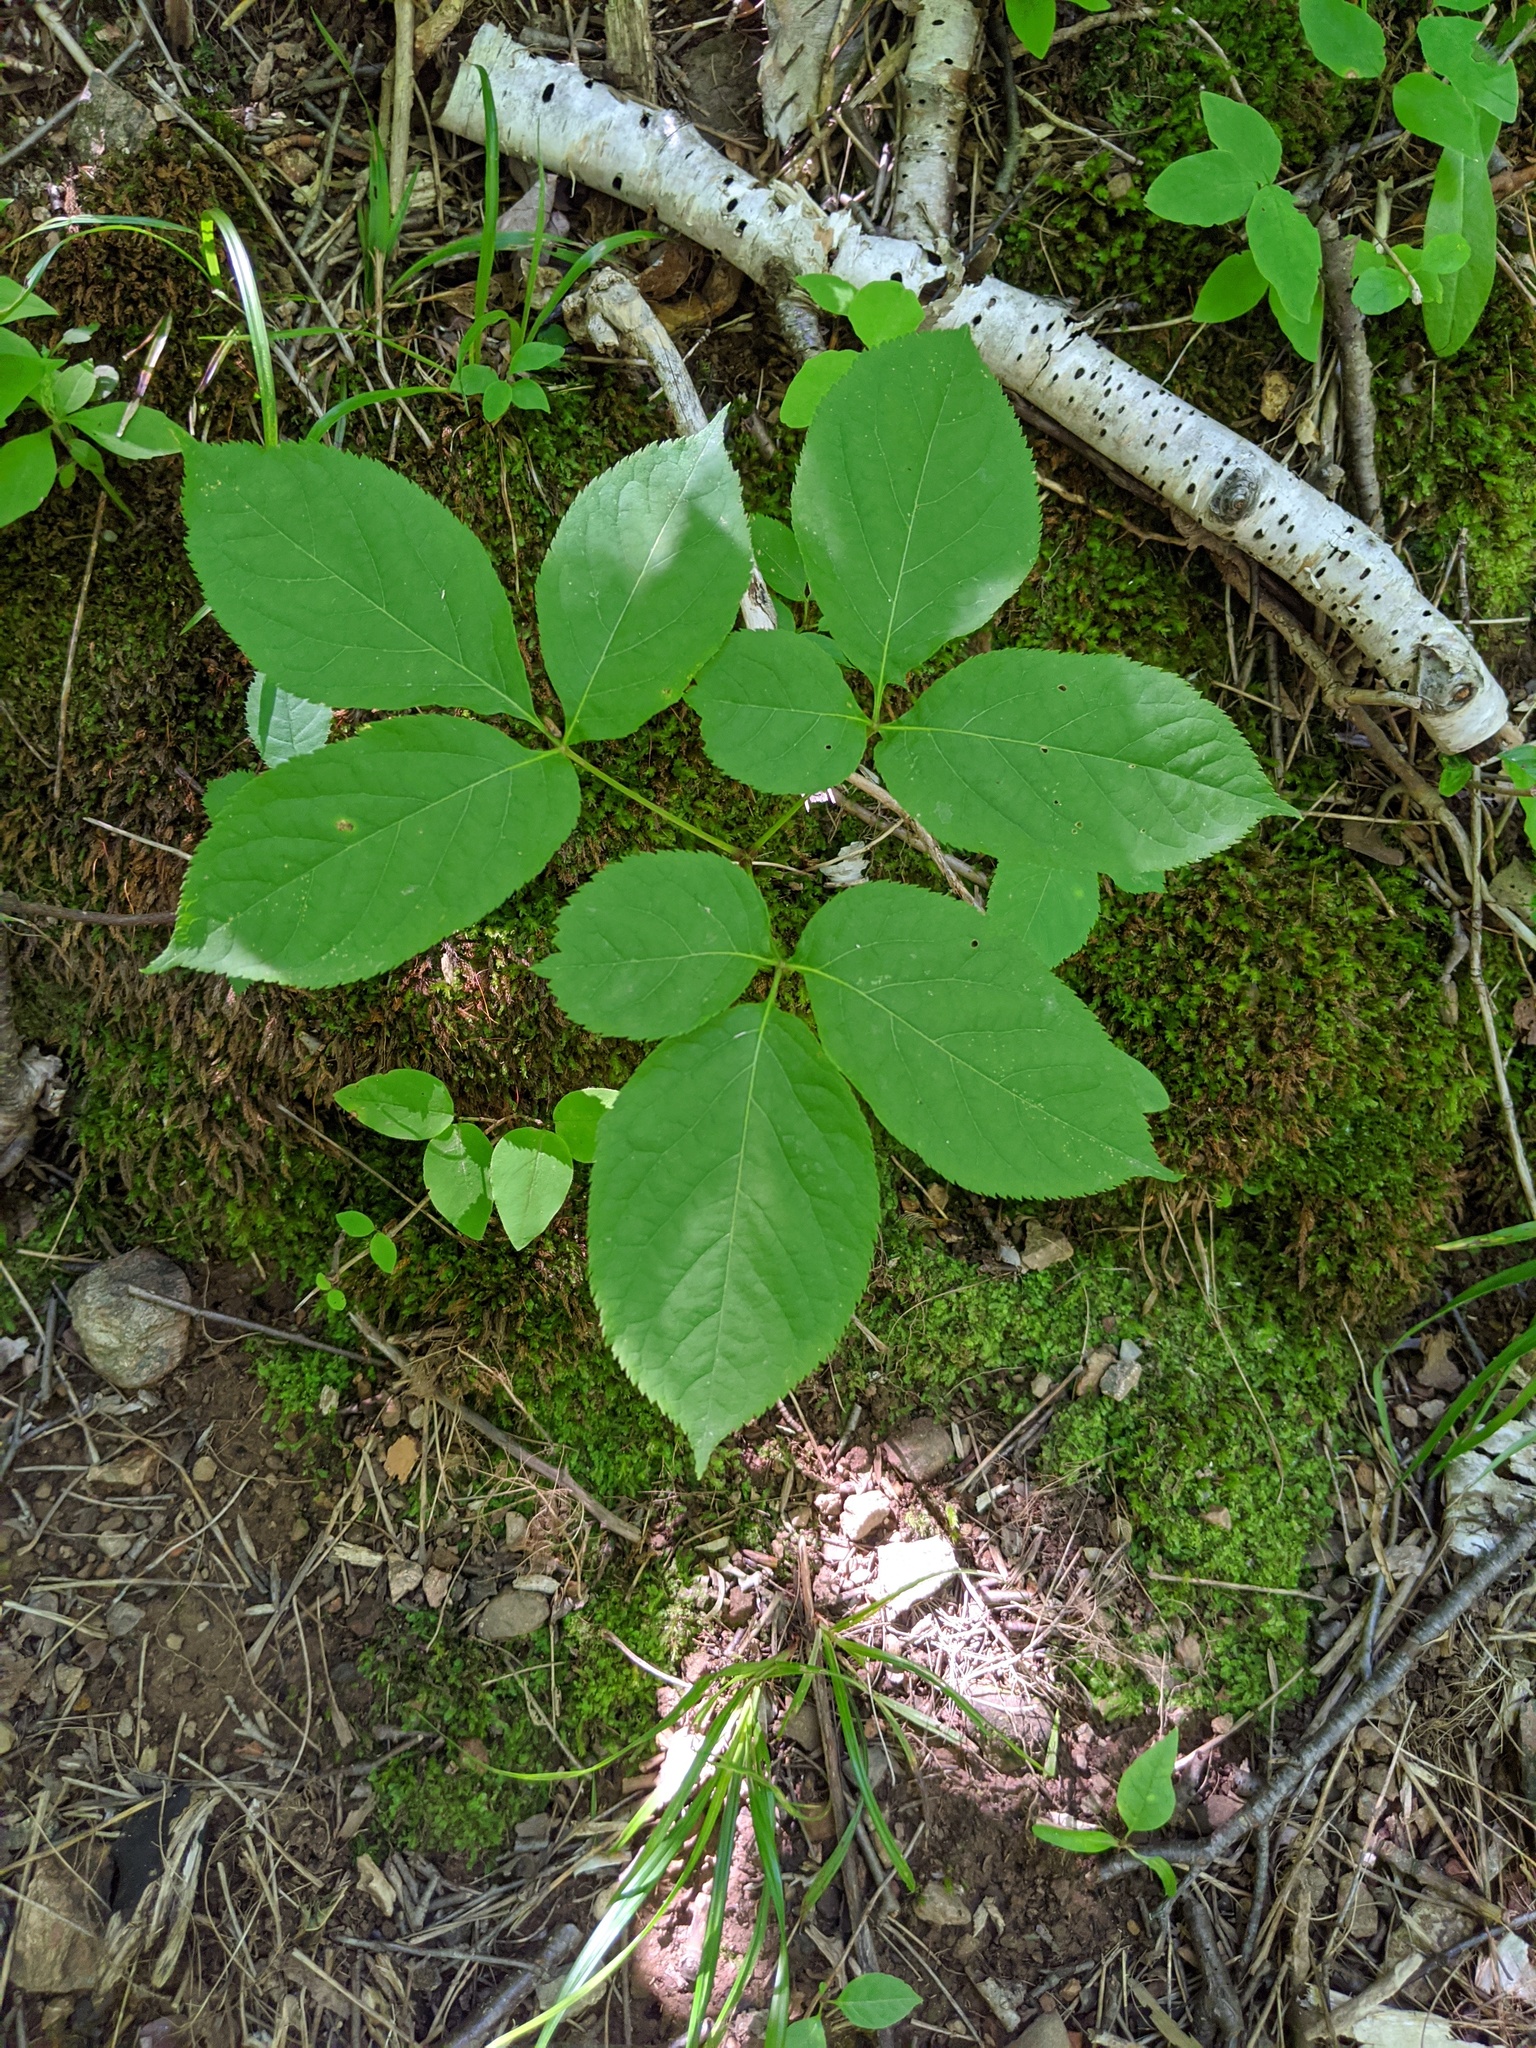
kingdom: Plantae
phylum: Tracheophyta
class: Magnoliopsida
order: Apiales
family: Araliaceae
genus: Aralia
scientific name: Aralia nudicaulis
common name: Wild sarsaparilla
